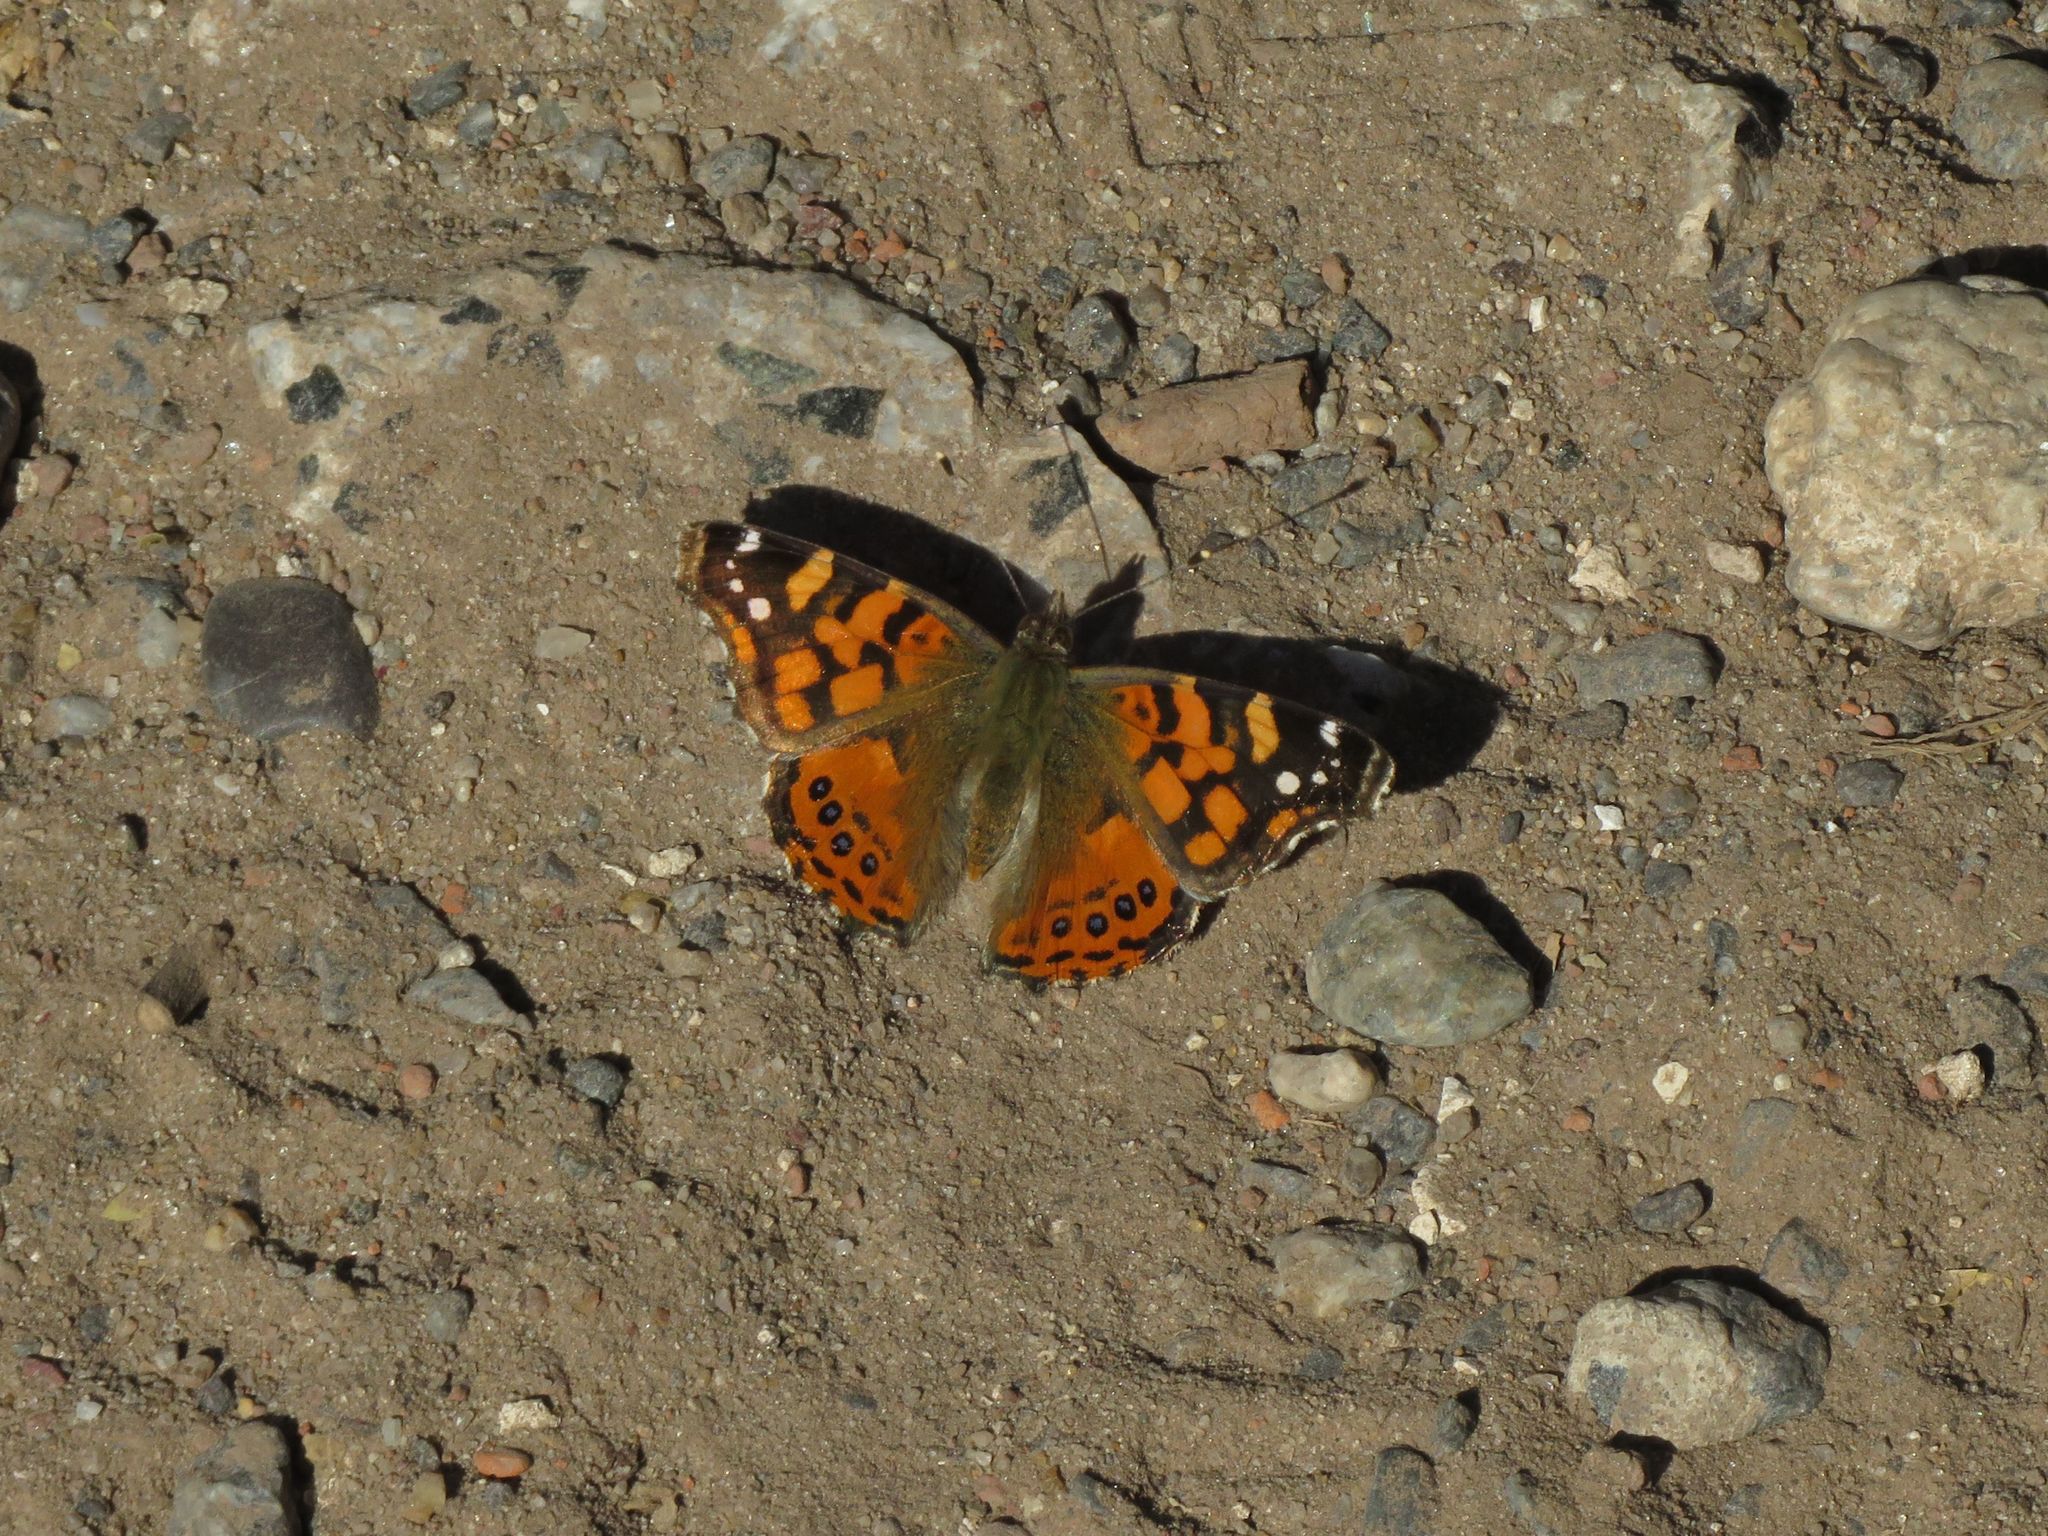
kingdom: Animalia
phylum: Arthropoda
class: Insecta
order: Lepidoptera
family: Nymphalidae
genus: Vanessa
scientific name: Vanessa carye
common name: Subtropical lady
